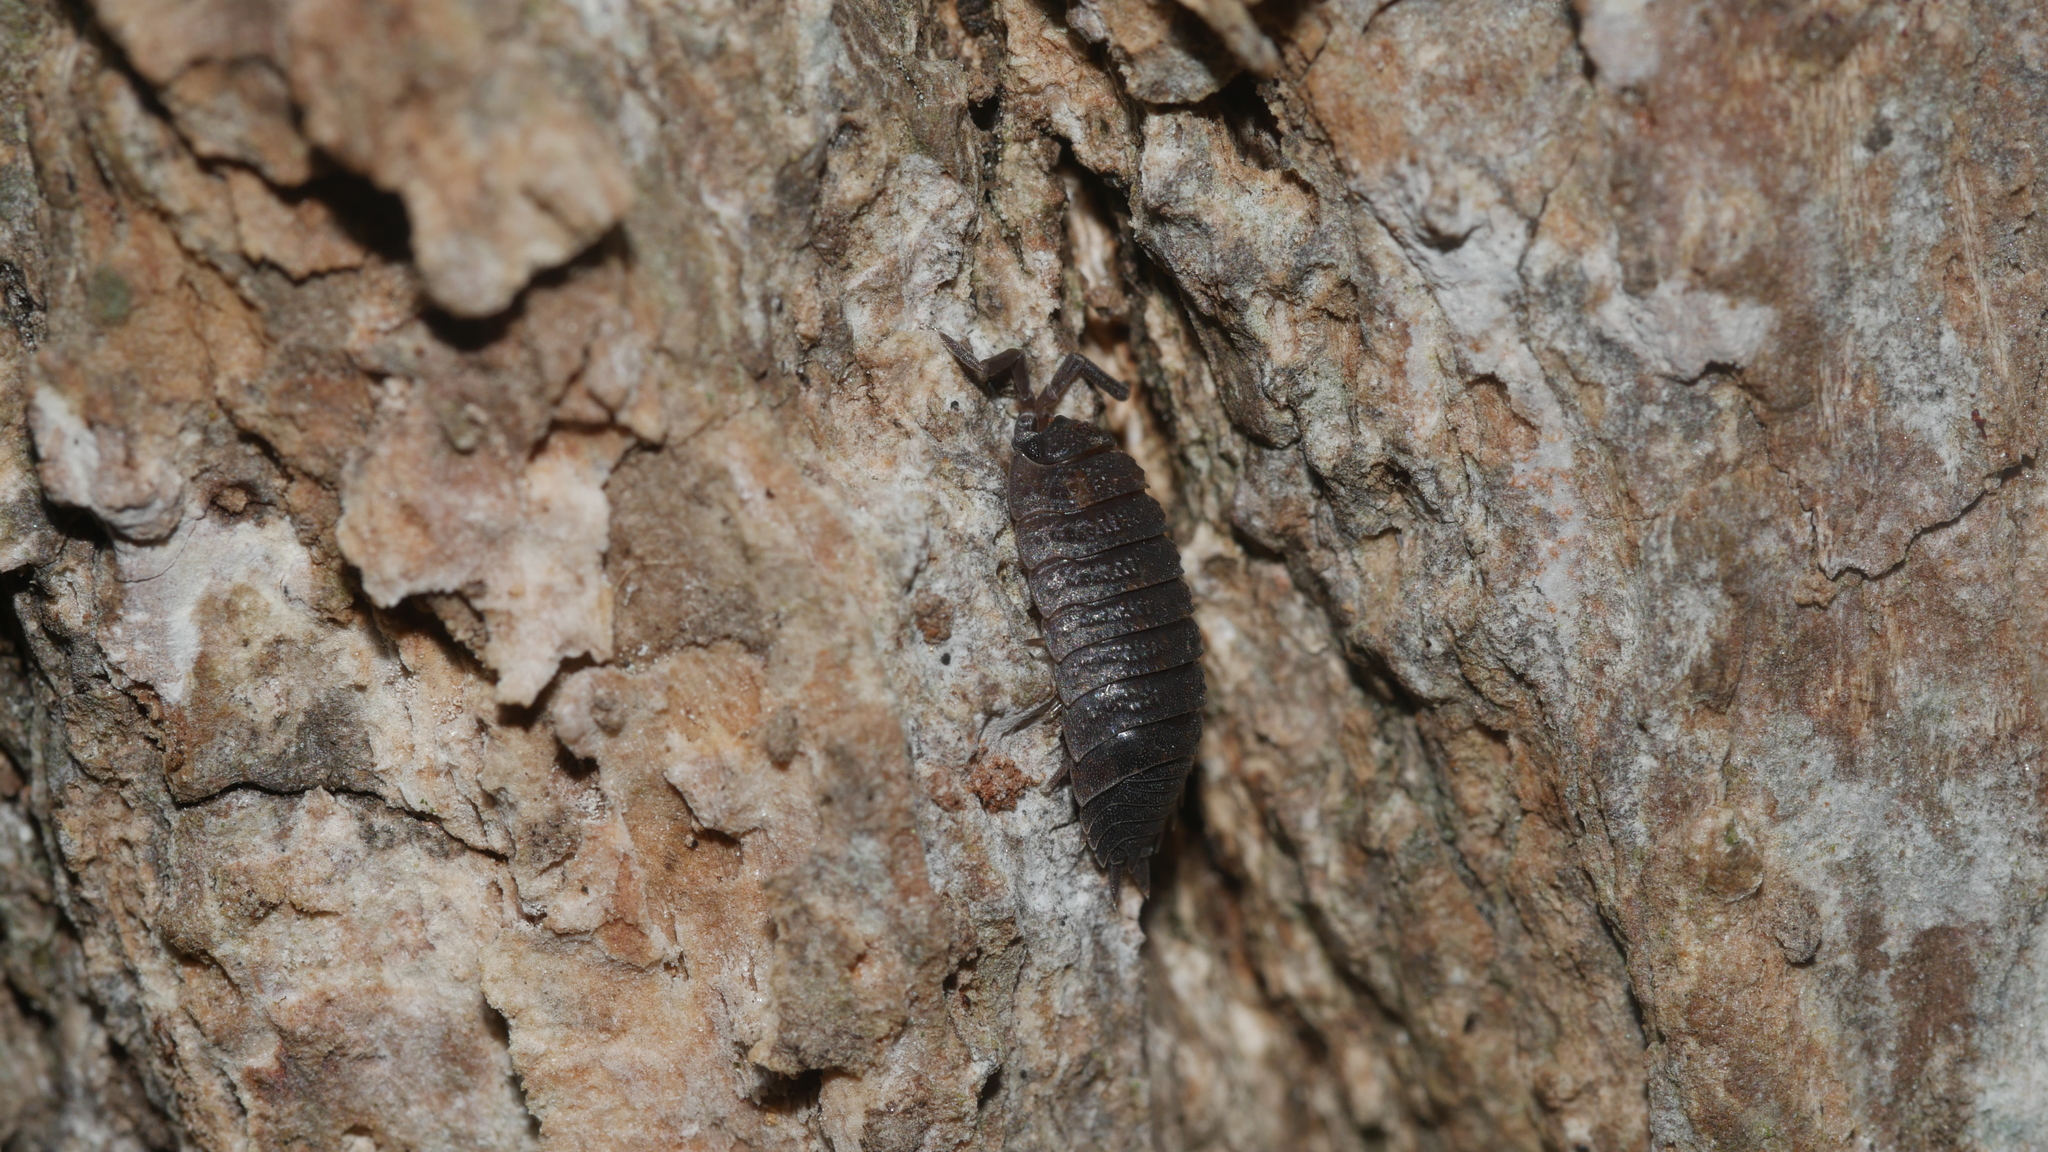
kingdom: Animalia
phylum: Arthropoda
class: Malacostraca
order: Isopoda
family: Porcellionidae
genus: Porcellio
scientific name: Porcellio scaber
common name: Common rough woodlouse
